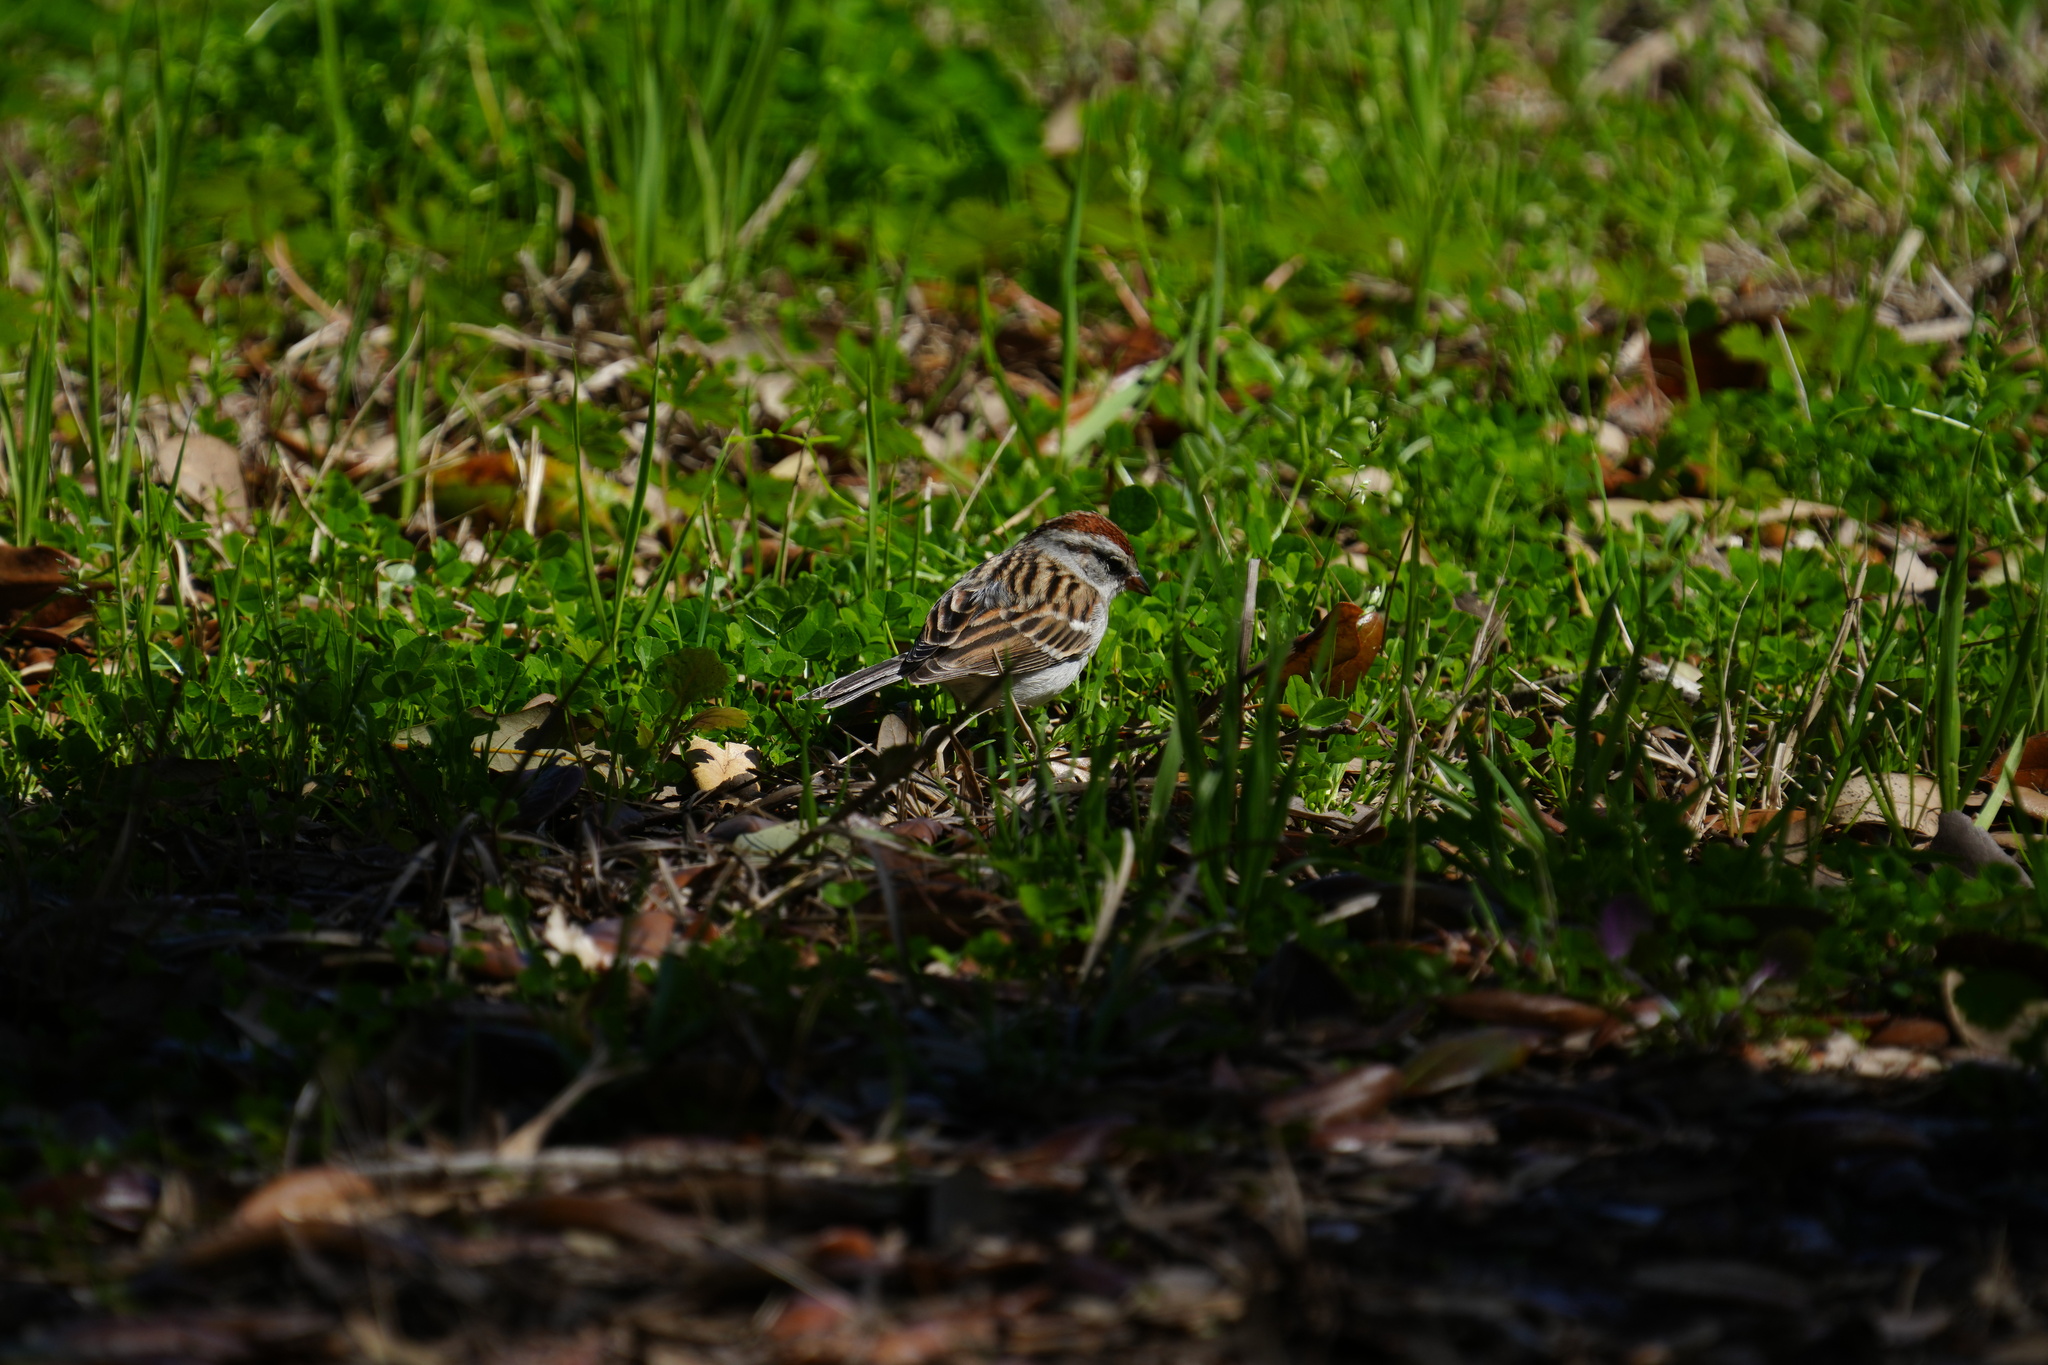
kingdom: Animalia
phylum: Chordata
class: Aves
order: Passeriformes
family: Passerellidae
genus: Spizella
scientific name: Spizella passerina
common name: Chipping sparrow
